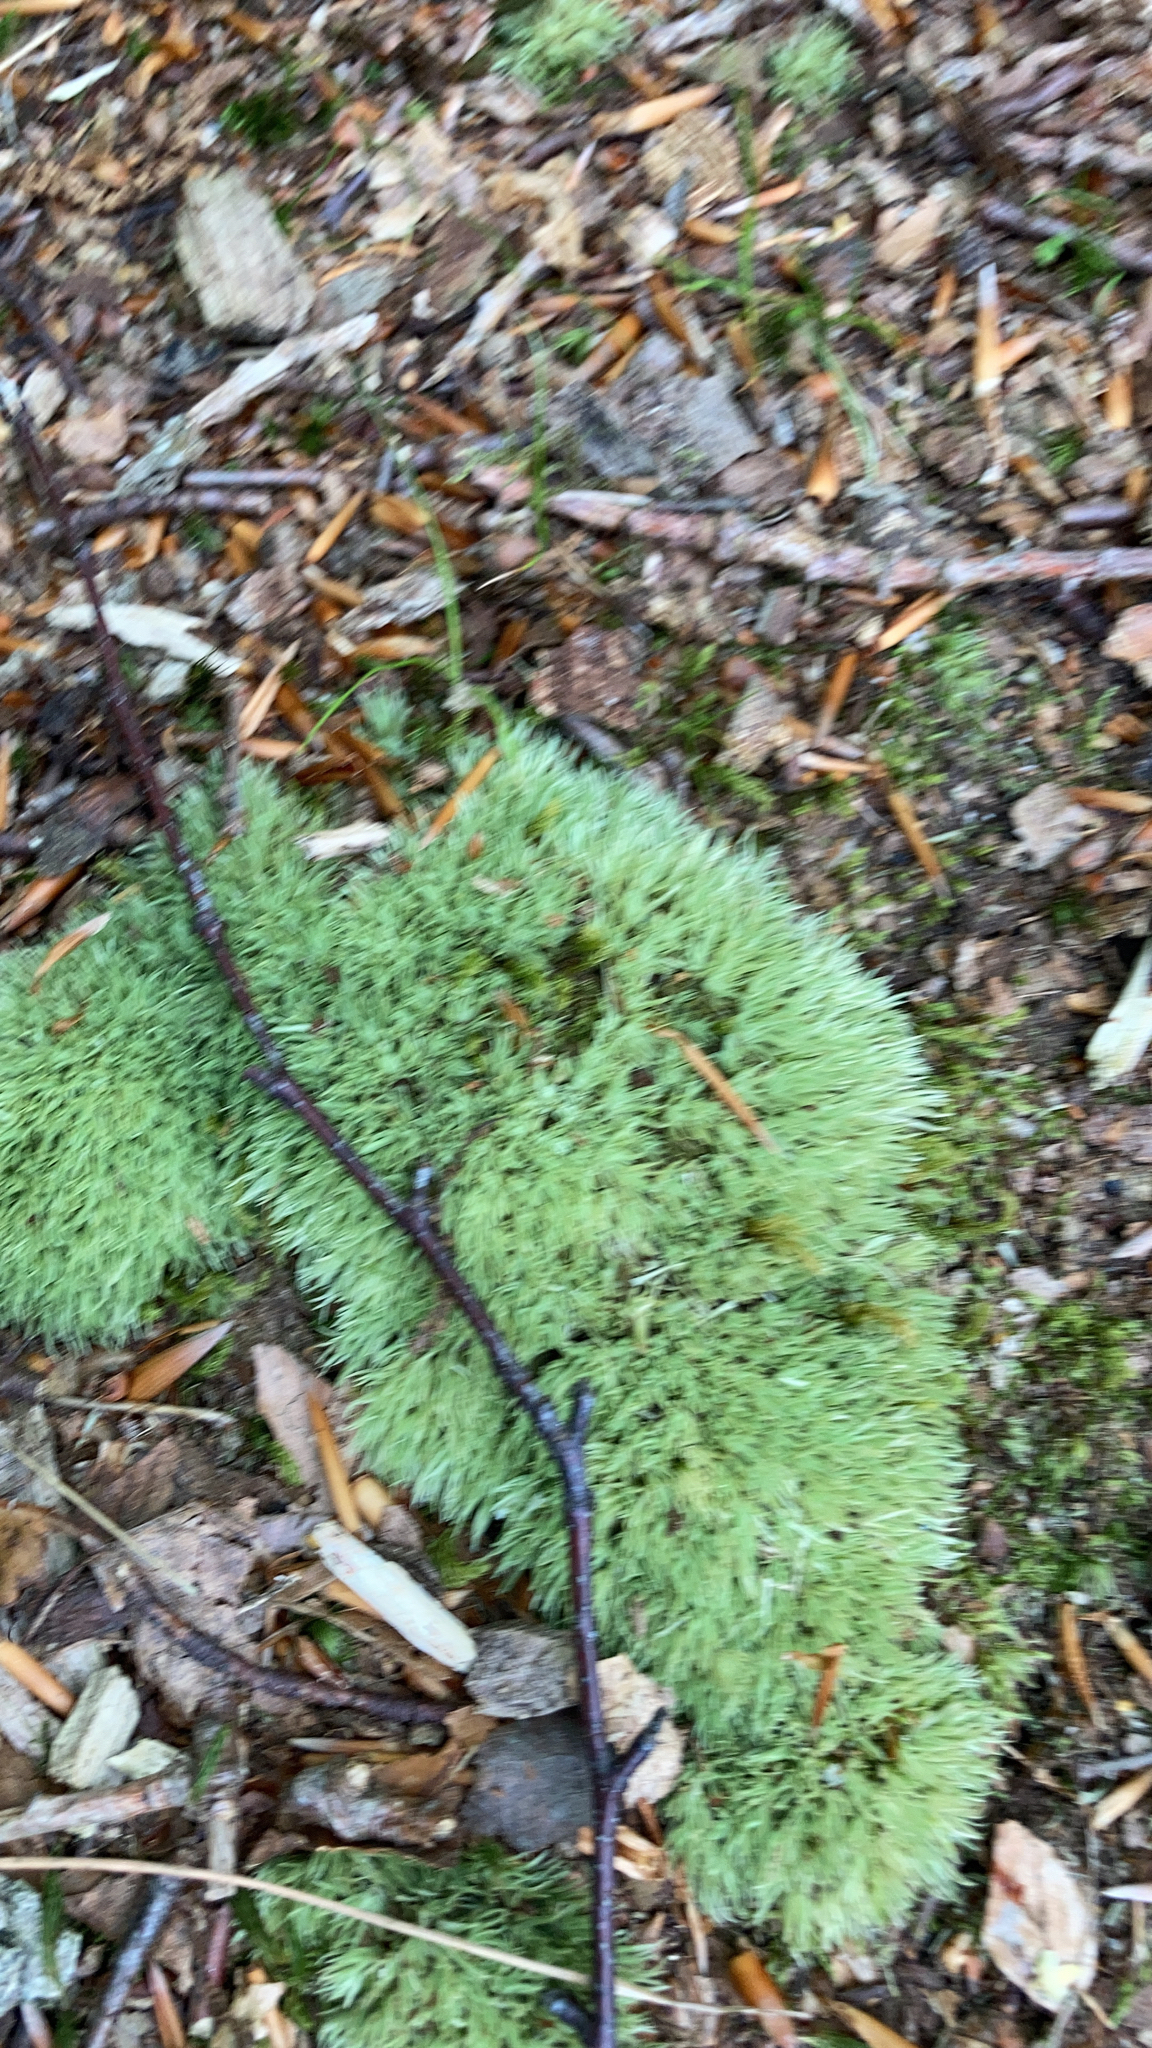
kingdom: Plantae
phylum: Bryophyta
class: Bryopsida
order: Dicranales
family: Leucobryaceae
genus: Leucobryum
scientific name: Leucobryum glaucum
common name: Large white-moss
